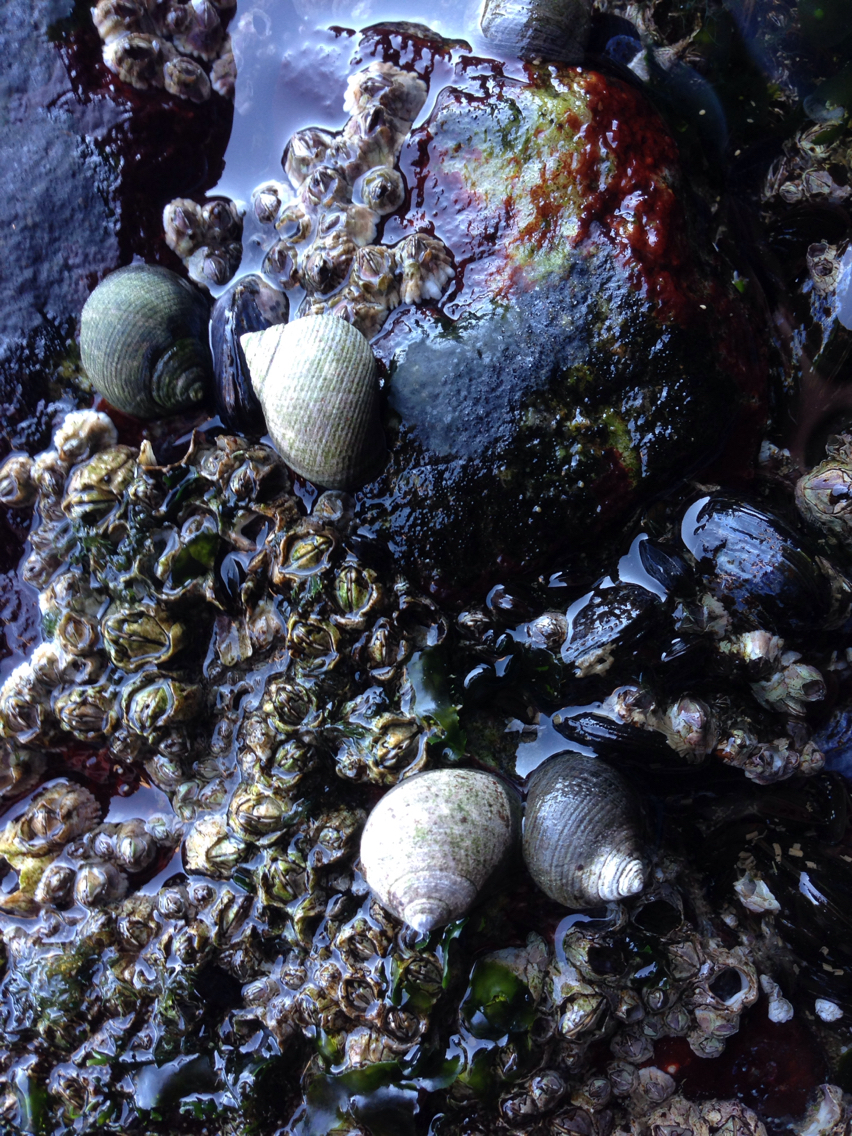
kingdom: Animalia
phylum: Mollusca
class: Gastropoda
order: Littorinimorpha
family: Littorinidae
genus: Littorina
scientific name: Littorina littorea
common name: Common periwinkle
